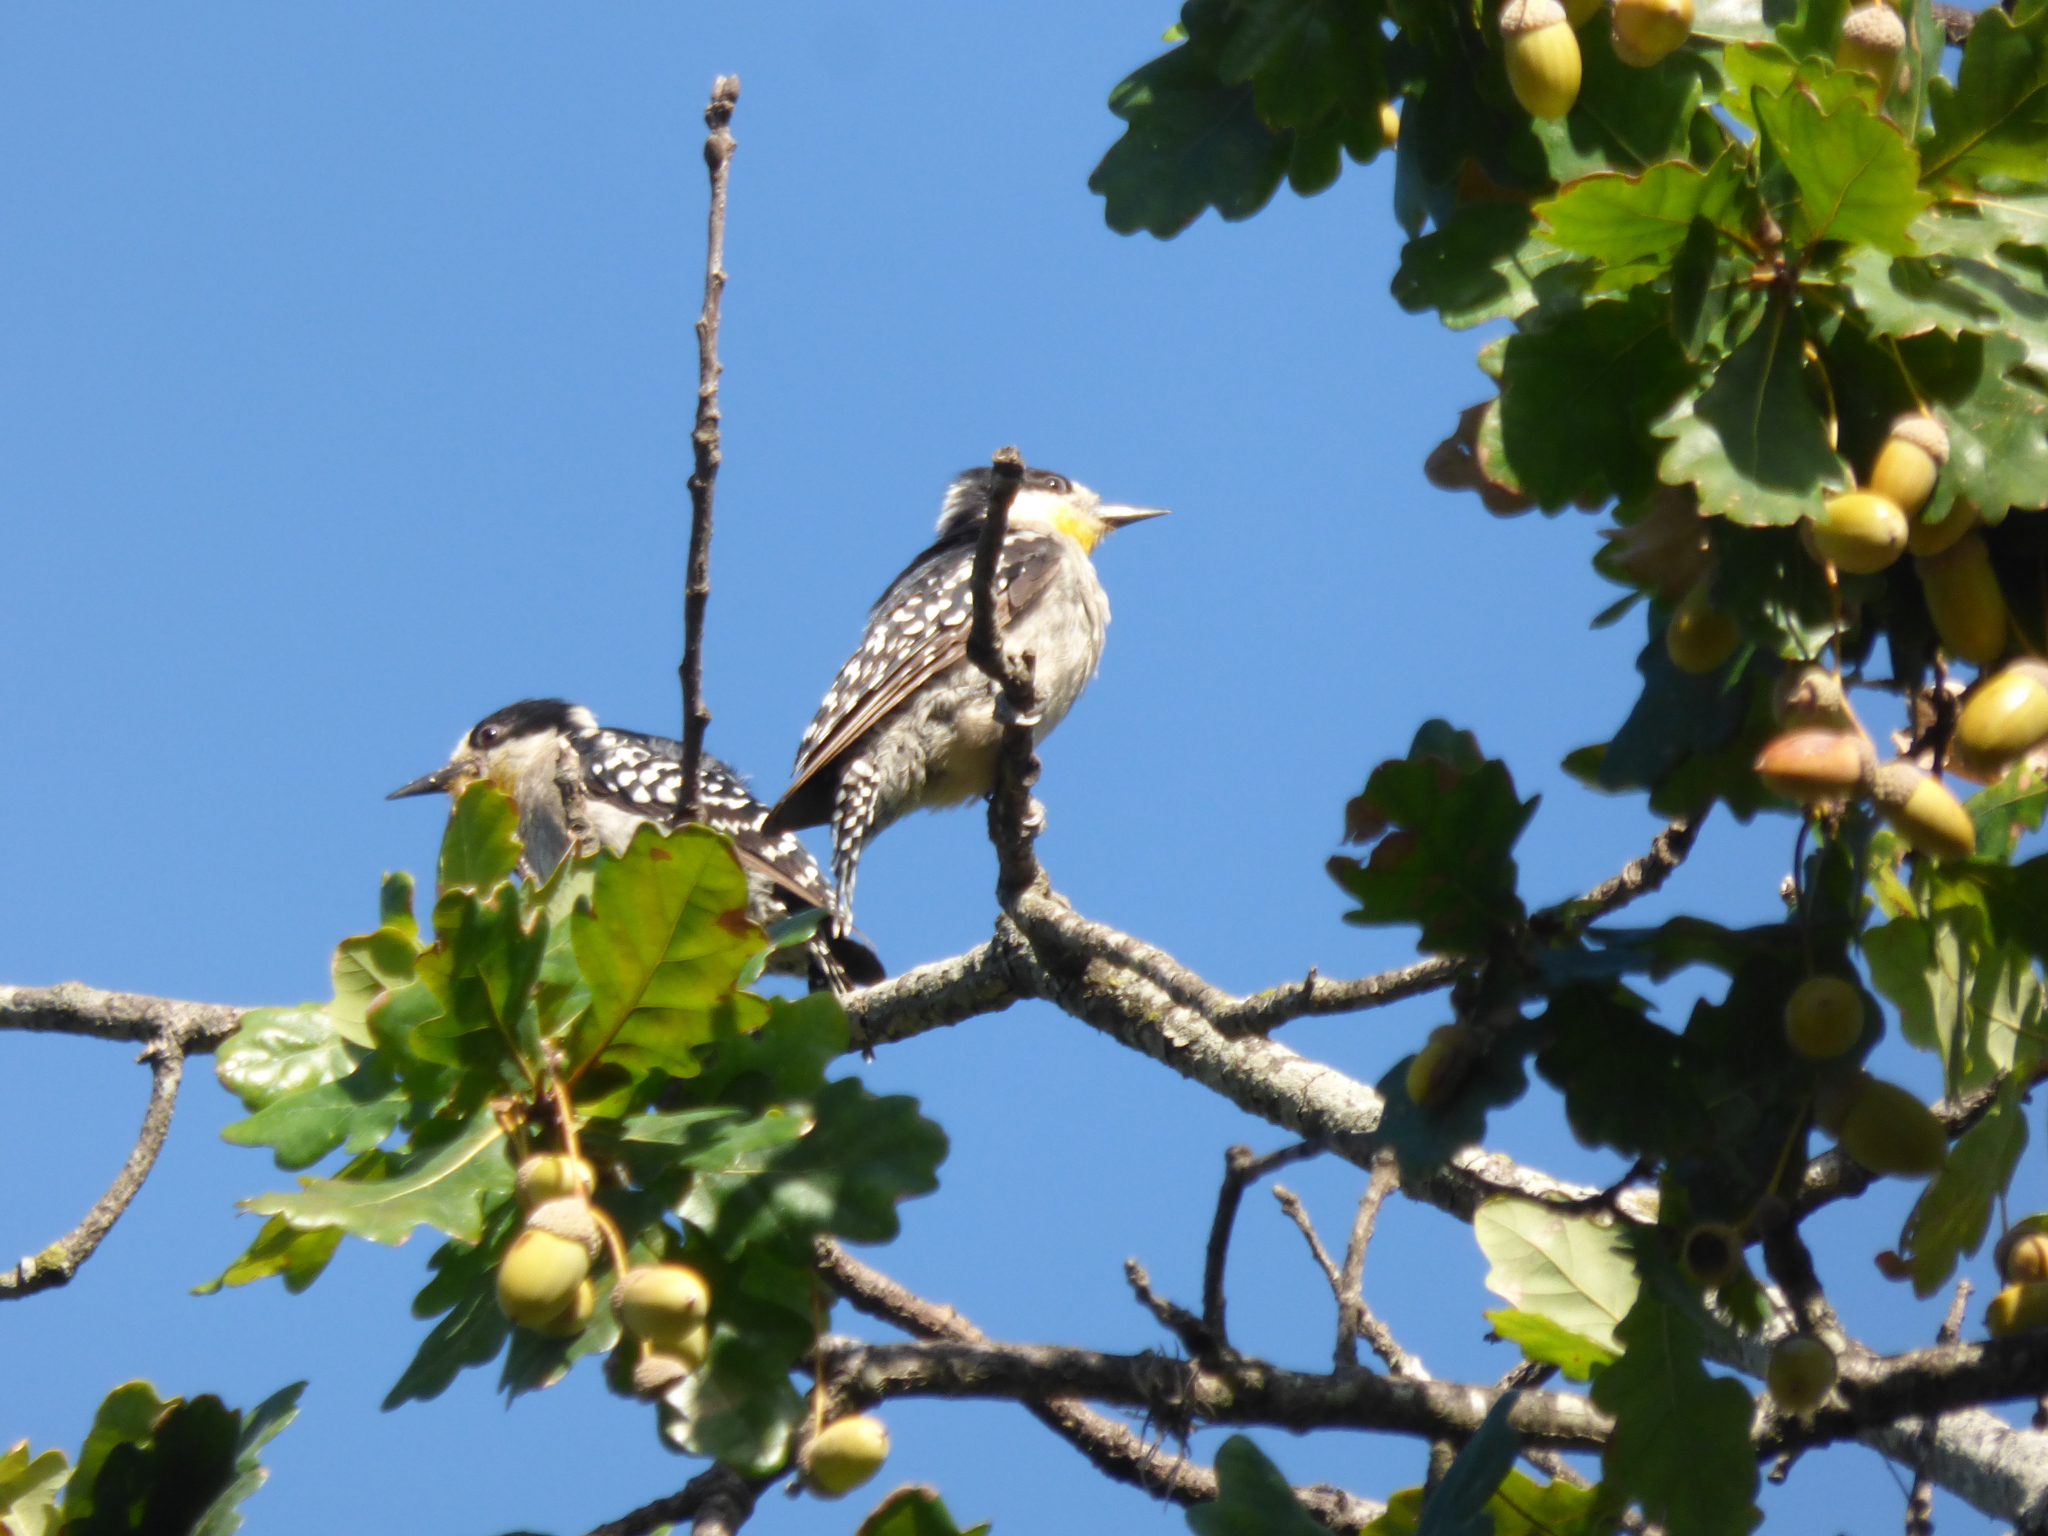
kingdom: Animalia
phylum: Chordata
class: Aves
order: Piciformes
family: Picidae
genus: Melanerpes
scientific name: Melanerpes cactorum
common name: White-fronted woodpecker
